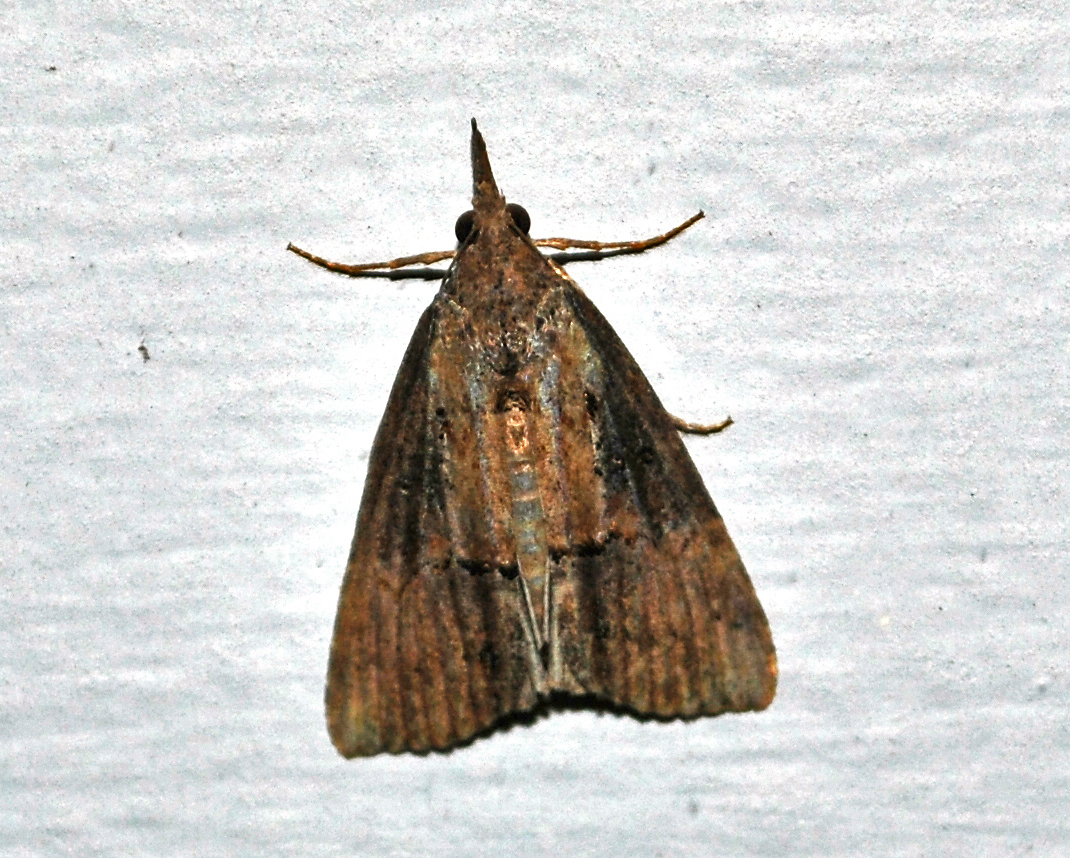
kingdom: Animalia
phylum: Arthropoda
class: Insecta
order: Lepidoptera
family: Erebidae
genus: Hypena
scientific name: Hypena scabra
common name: Green cloverworm
